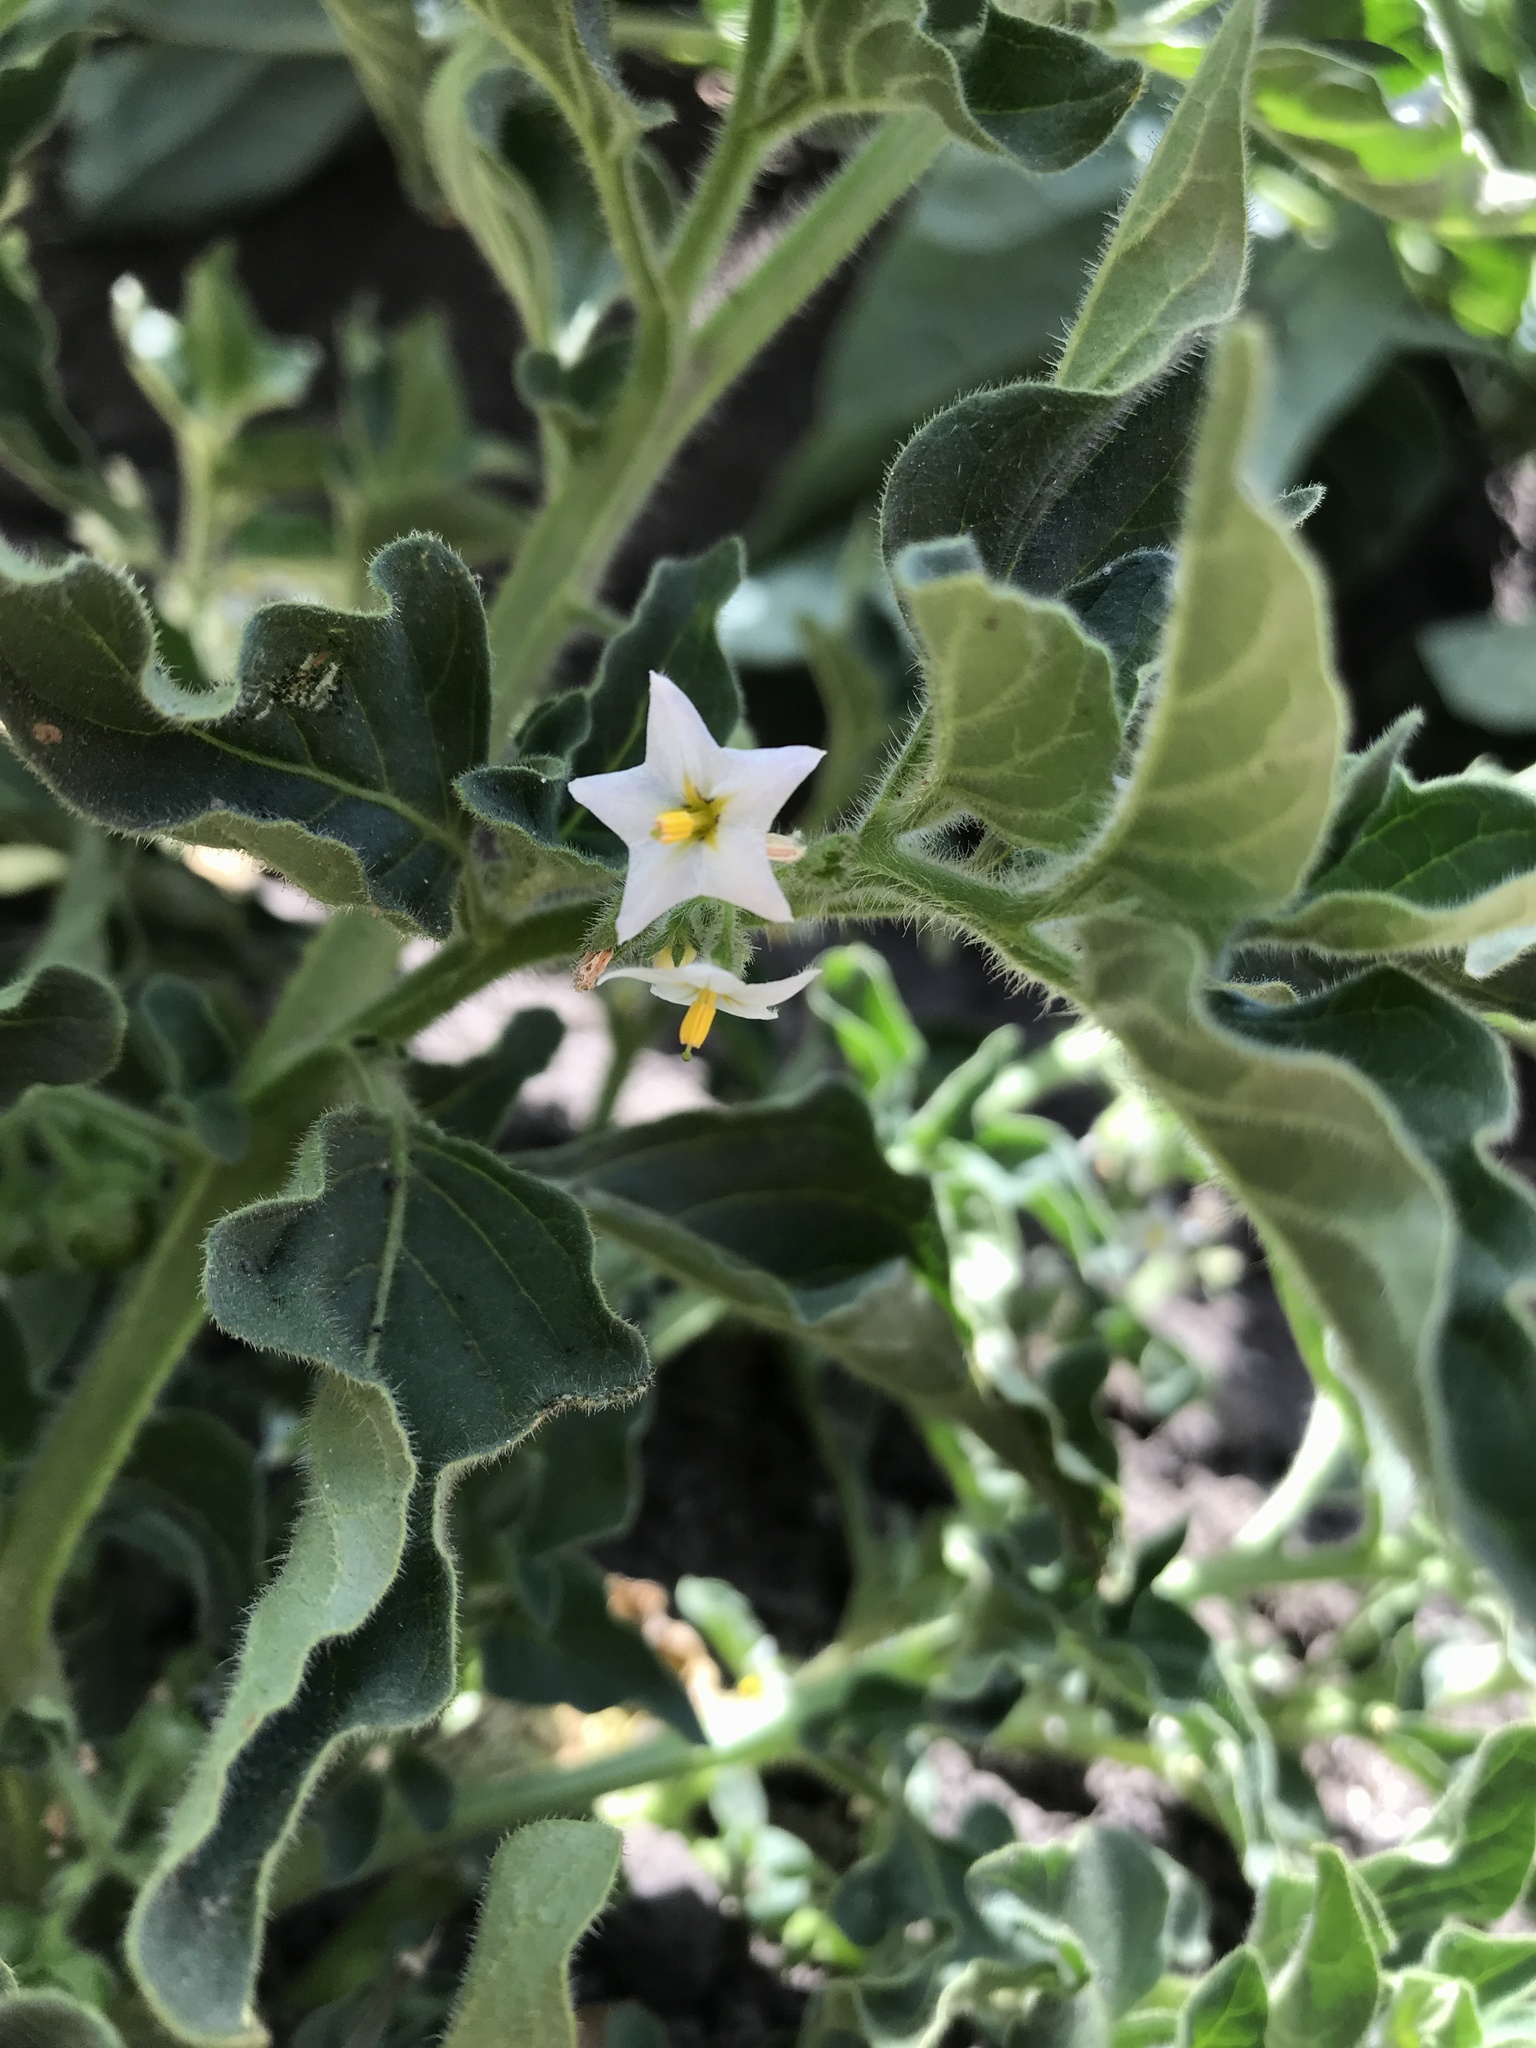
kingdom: Plantae
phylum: Tracheophyta
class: Magnoliopsida
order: Solanales
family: Solanaceae
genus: Solanum
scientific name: Solanum nitidibaccatum
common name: Hairy nightshade
